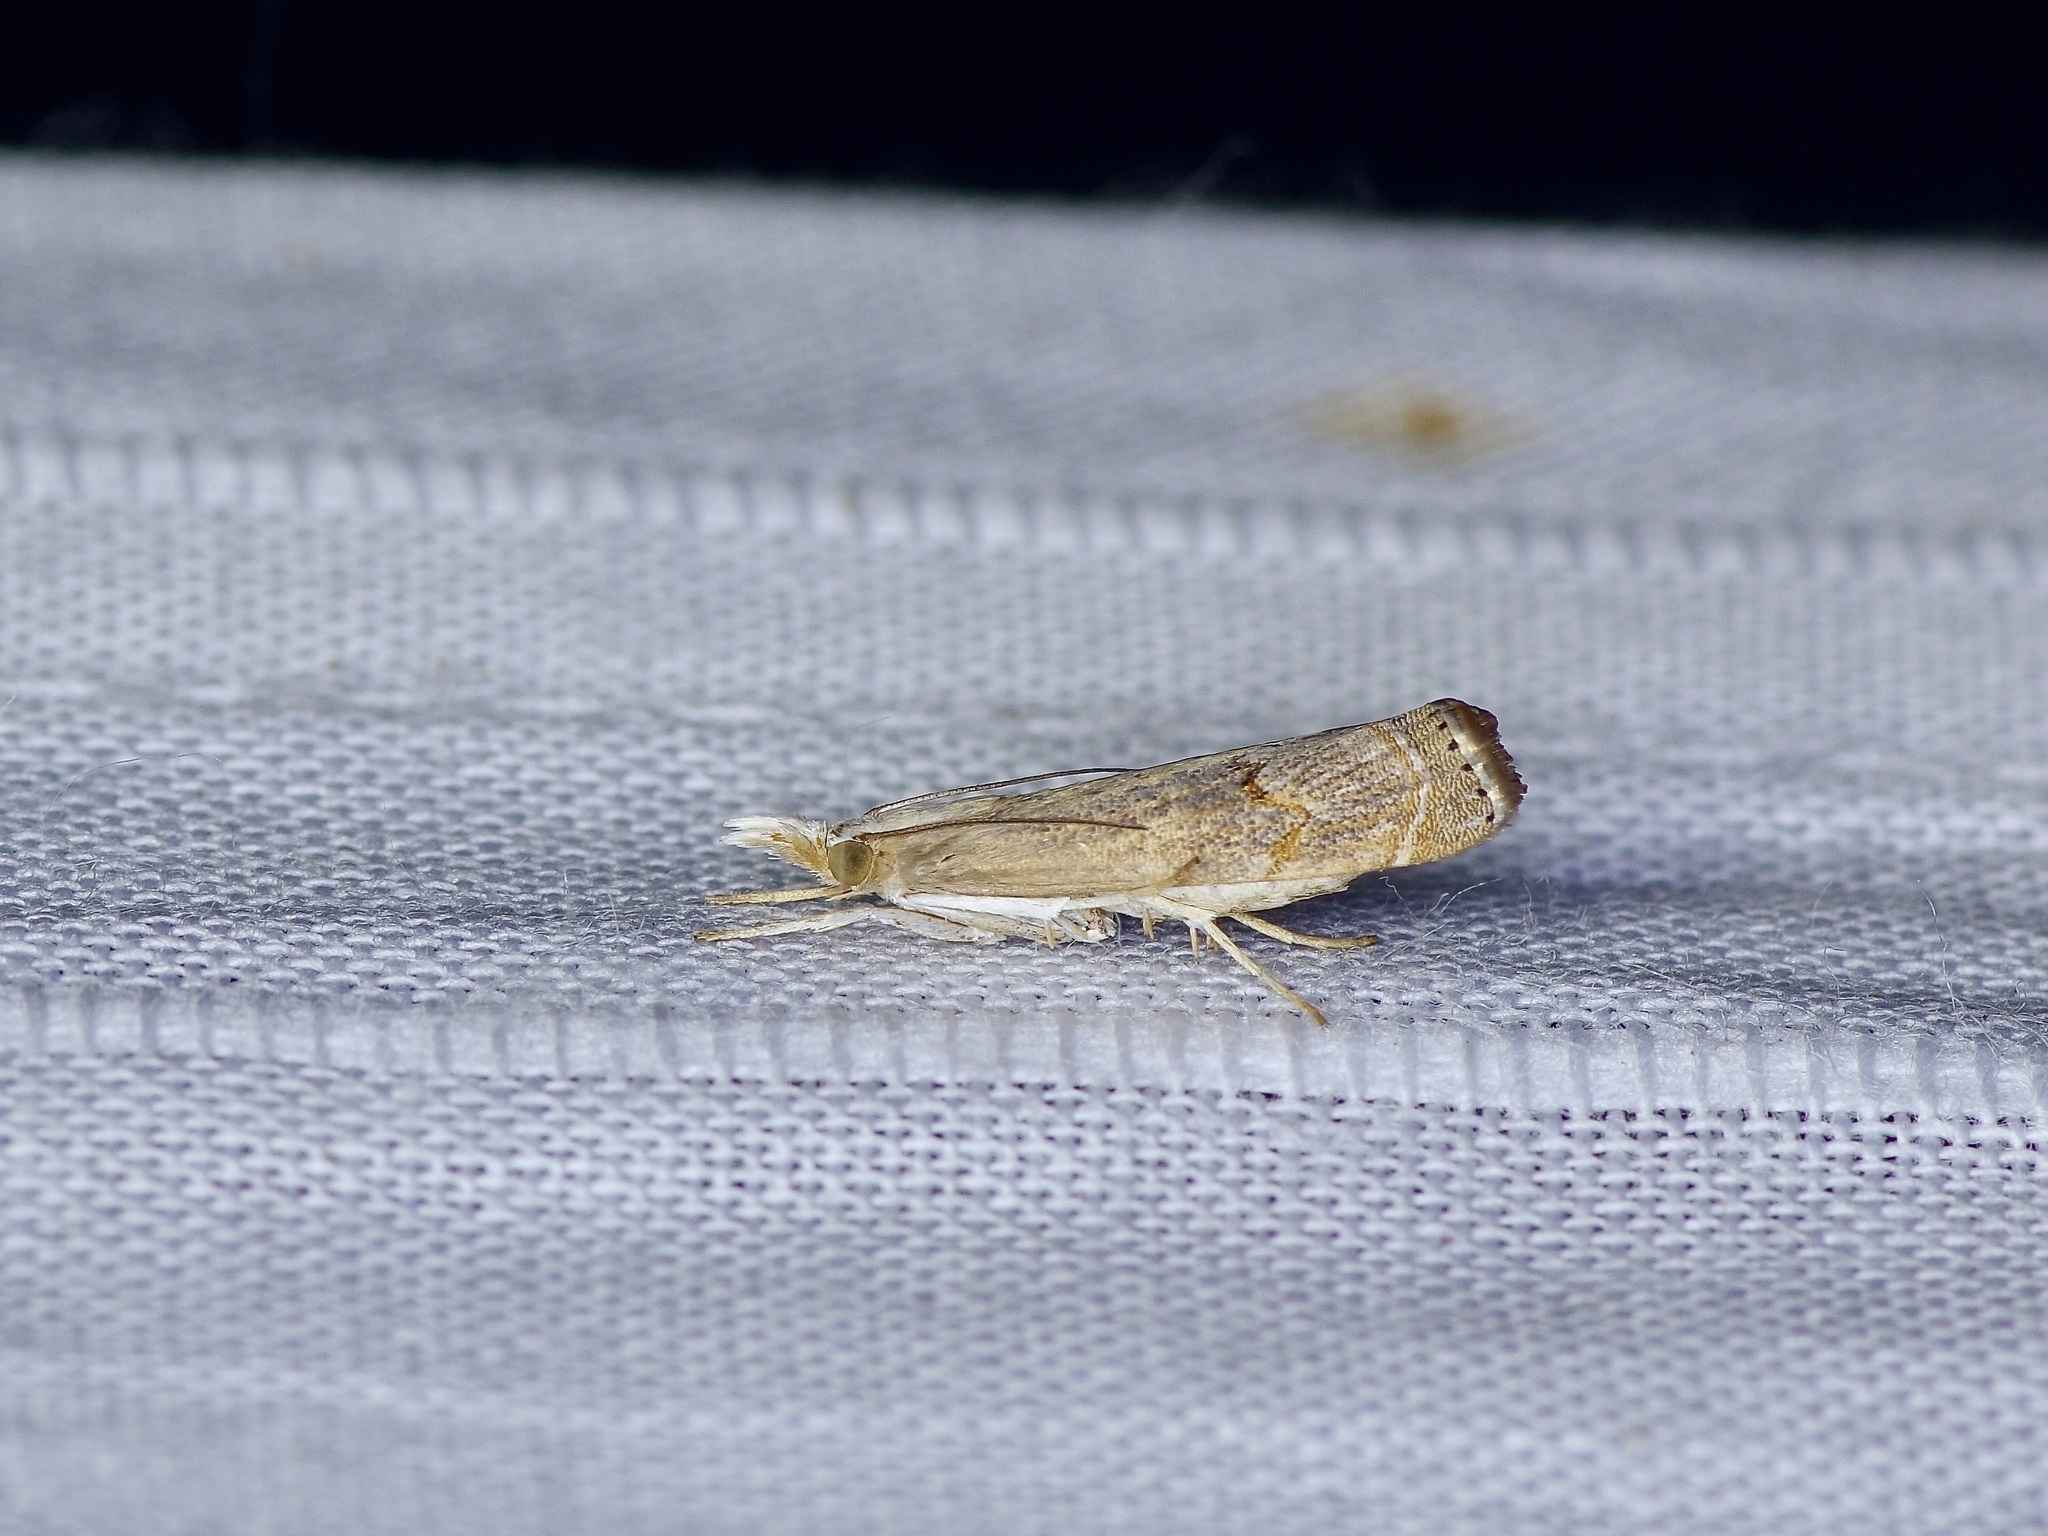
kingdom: Animalia
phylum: Arthropoda
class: Insecta
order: Lepidoptera
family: Crambidae
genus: Parapediasia
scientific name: Parapediasia teterellus
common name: Bluegrass webworm moth
